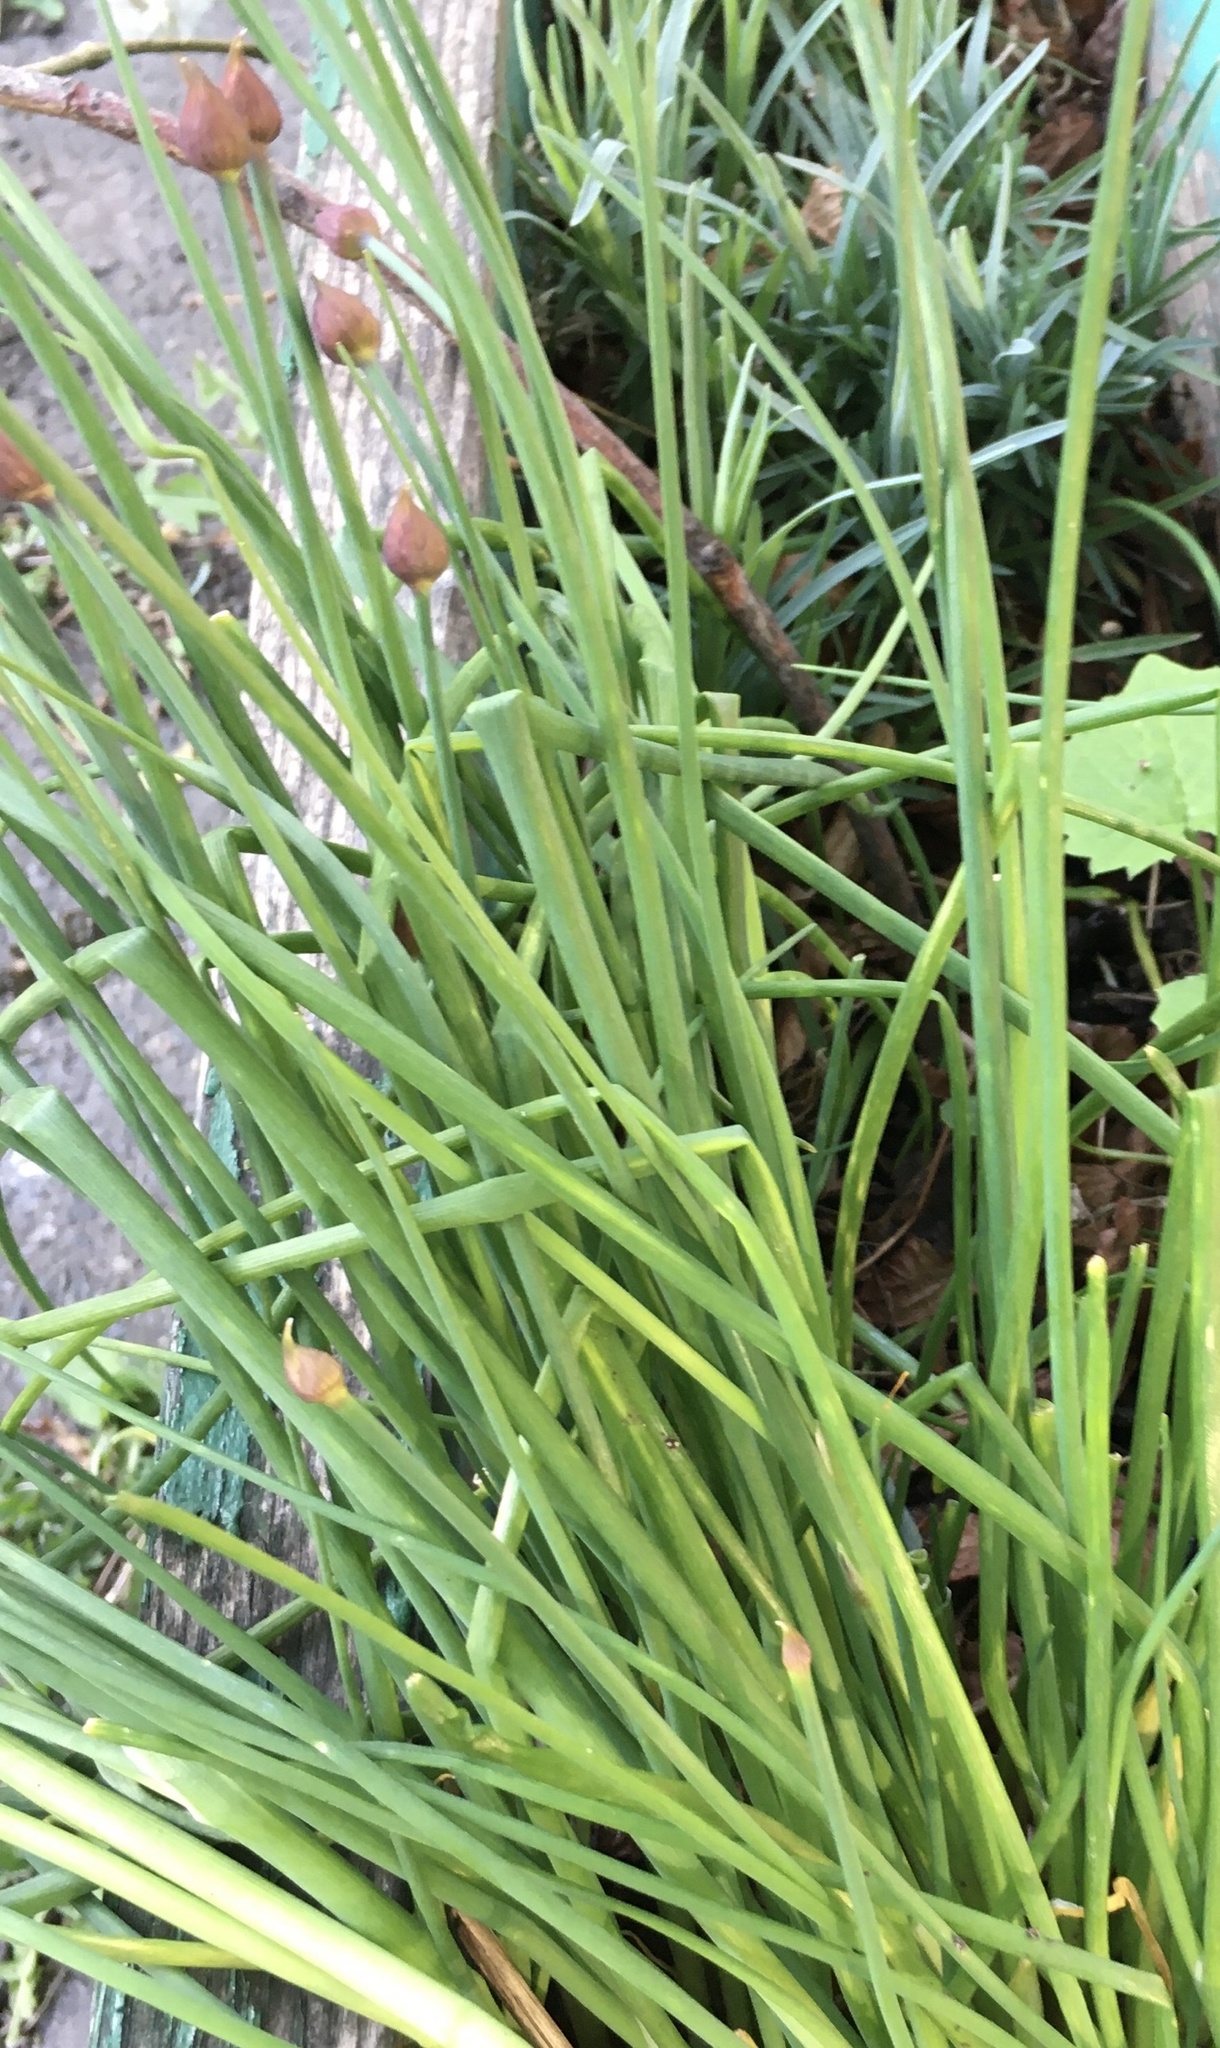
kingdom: Plantae
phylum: Tracheophyta
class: Liliopsida
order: Asparagales
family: Amaryllidaceae
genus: Allium
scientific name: Allium schoenoprasum
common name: Chives
